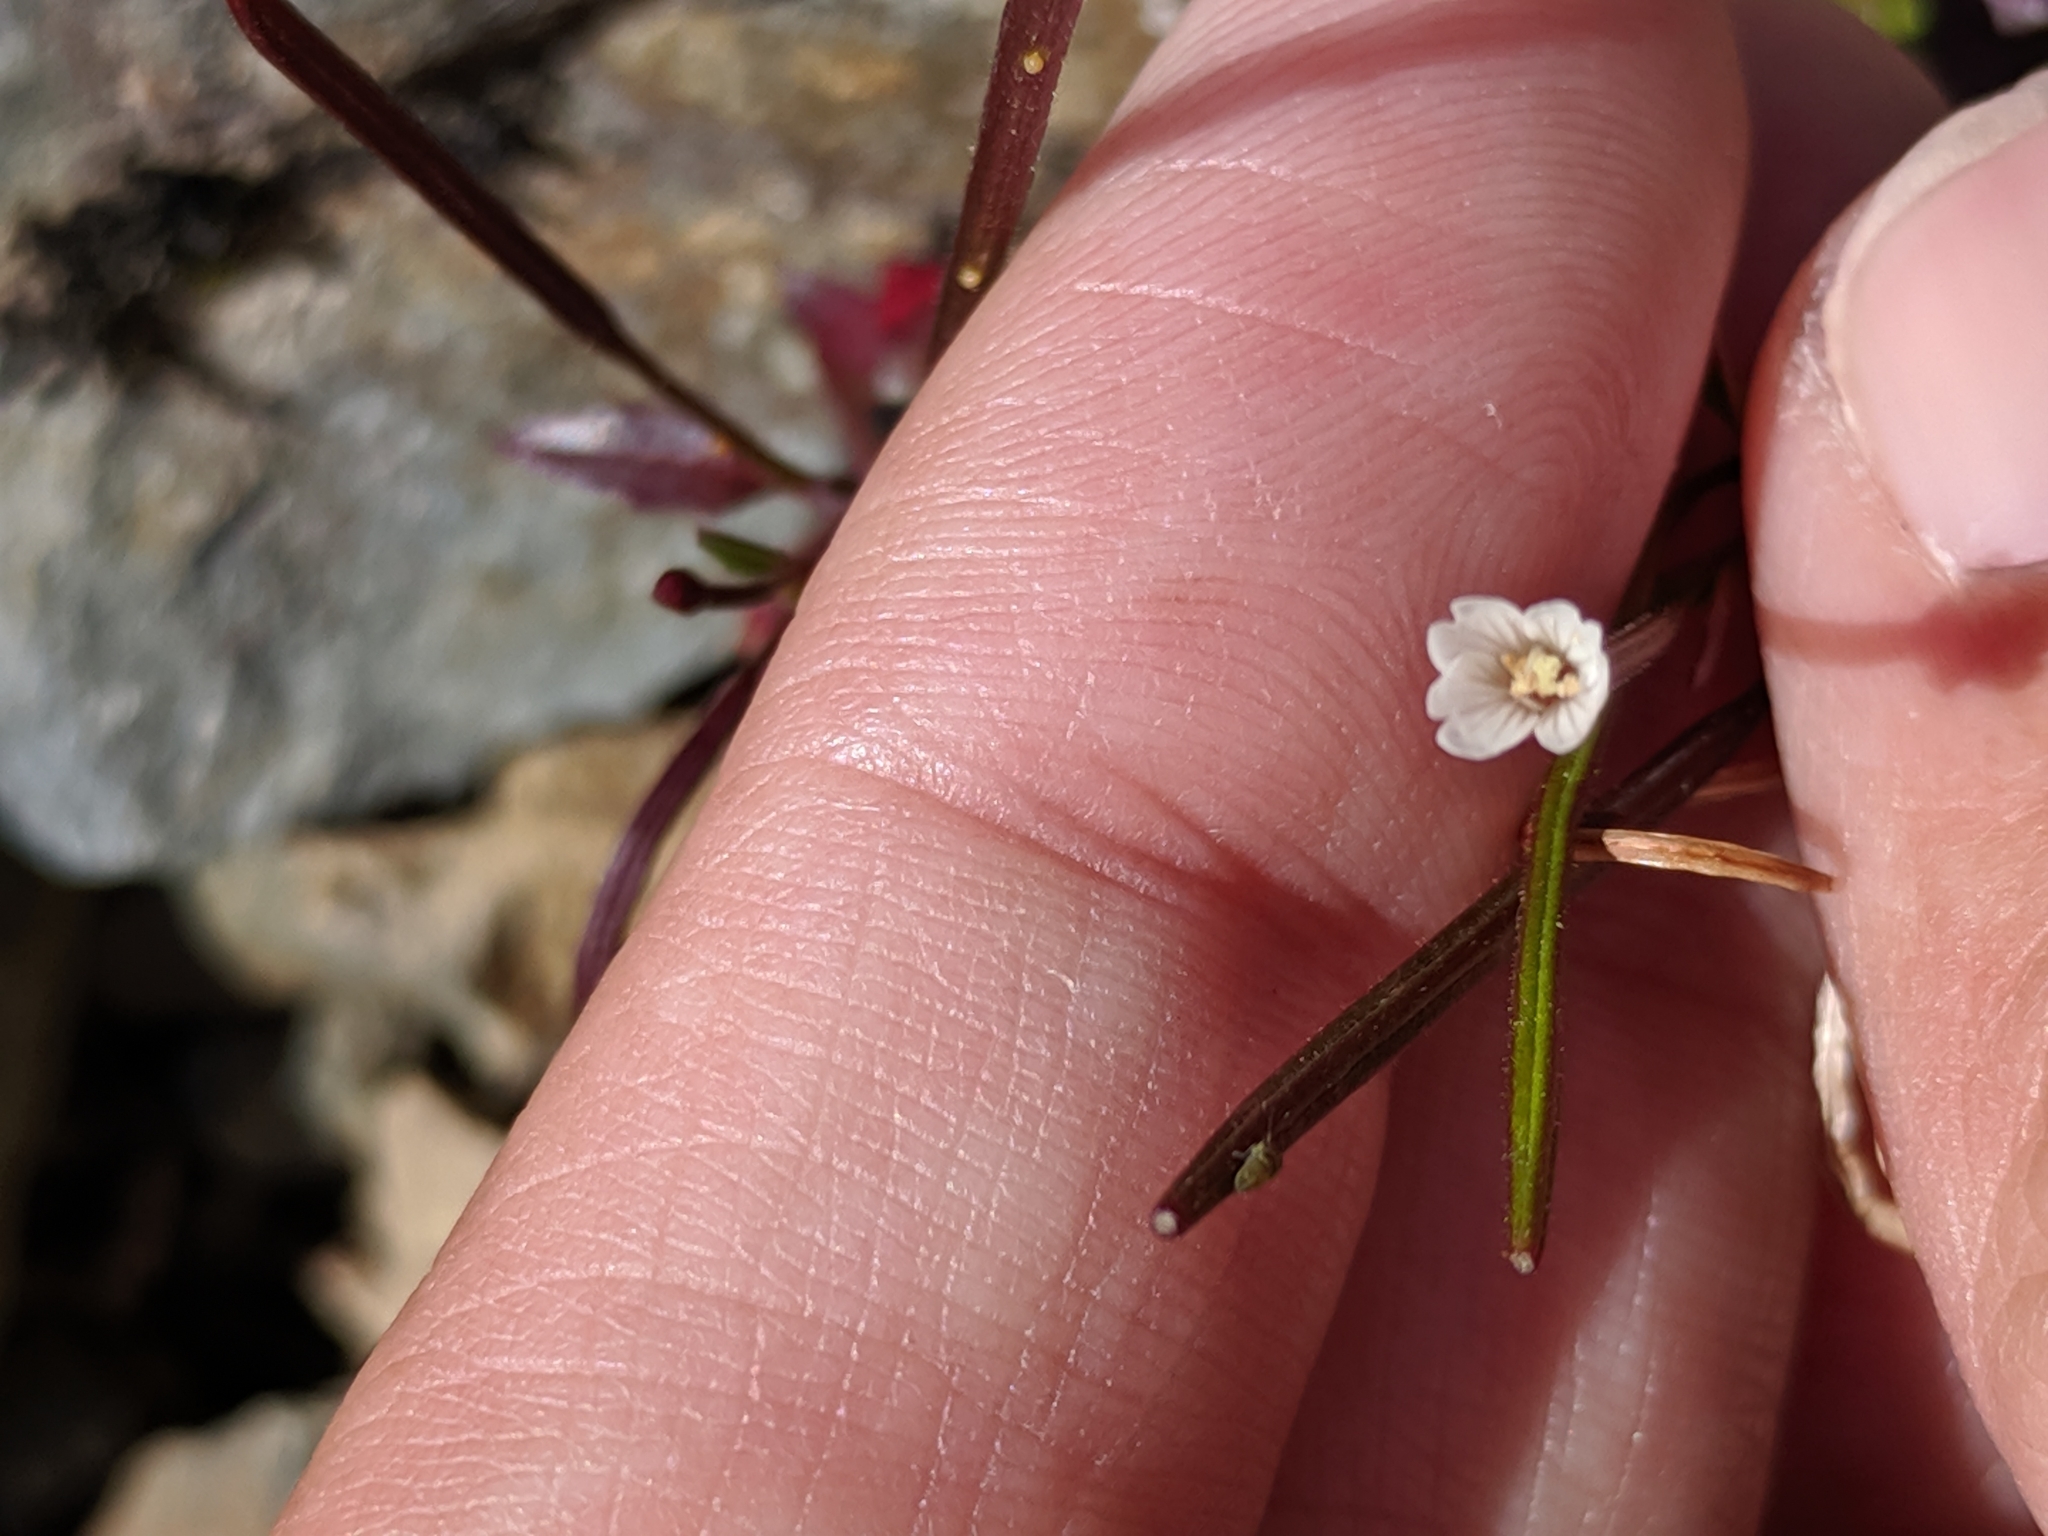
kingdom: Plantae
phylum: Tracheophyta
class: Magnoliopsida
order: Myrtales
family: Onagraceae
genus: Epilobium
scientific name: Epilobium anagallidifolium
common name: Alpine willowherb
